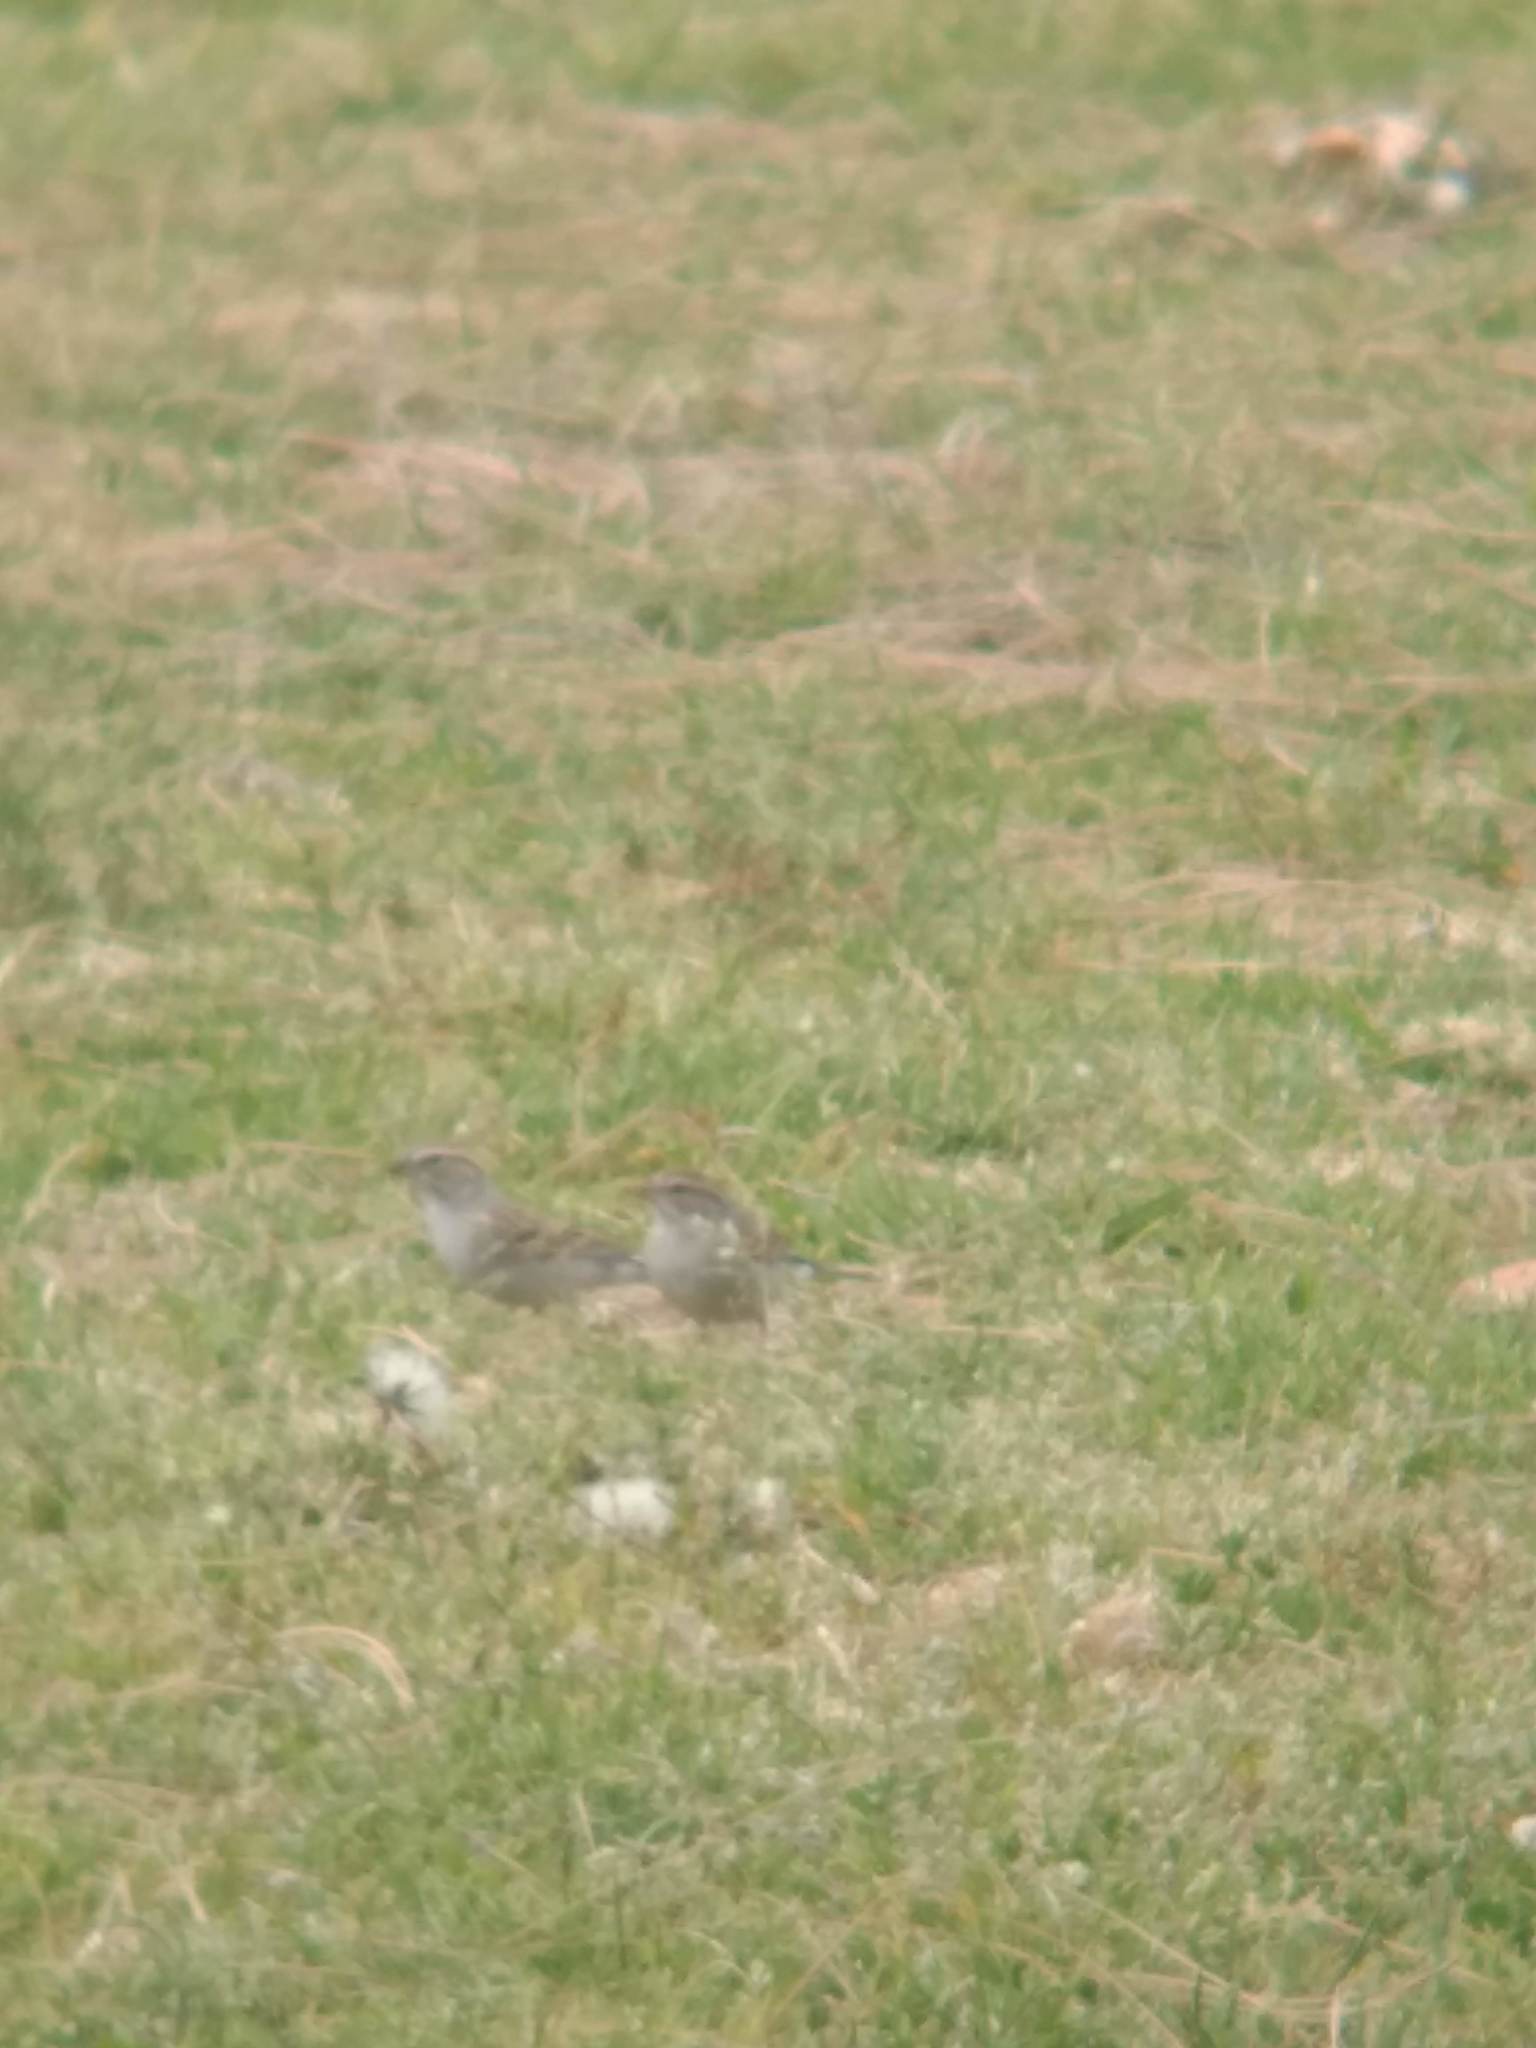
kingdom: Animalia
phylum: Chordata
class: Aves
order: Passeriformes
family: Passerellidae
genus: Spizella
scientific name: Spizella passerina
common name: Chipping sparrow
